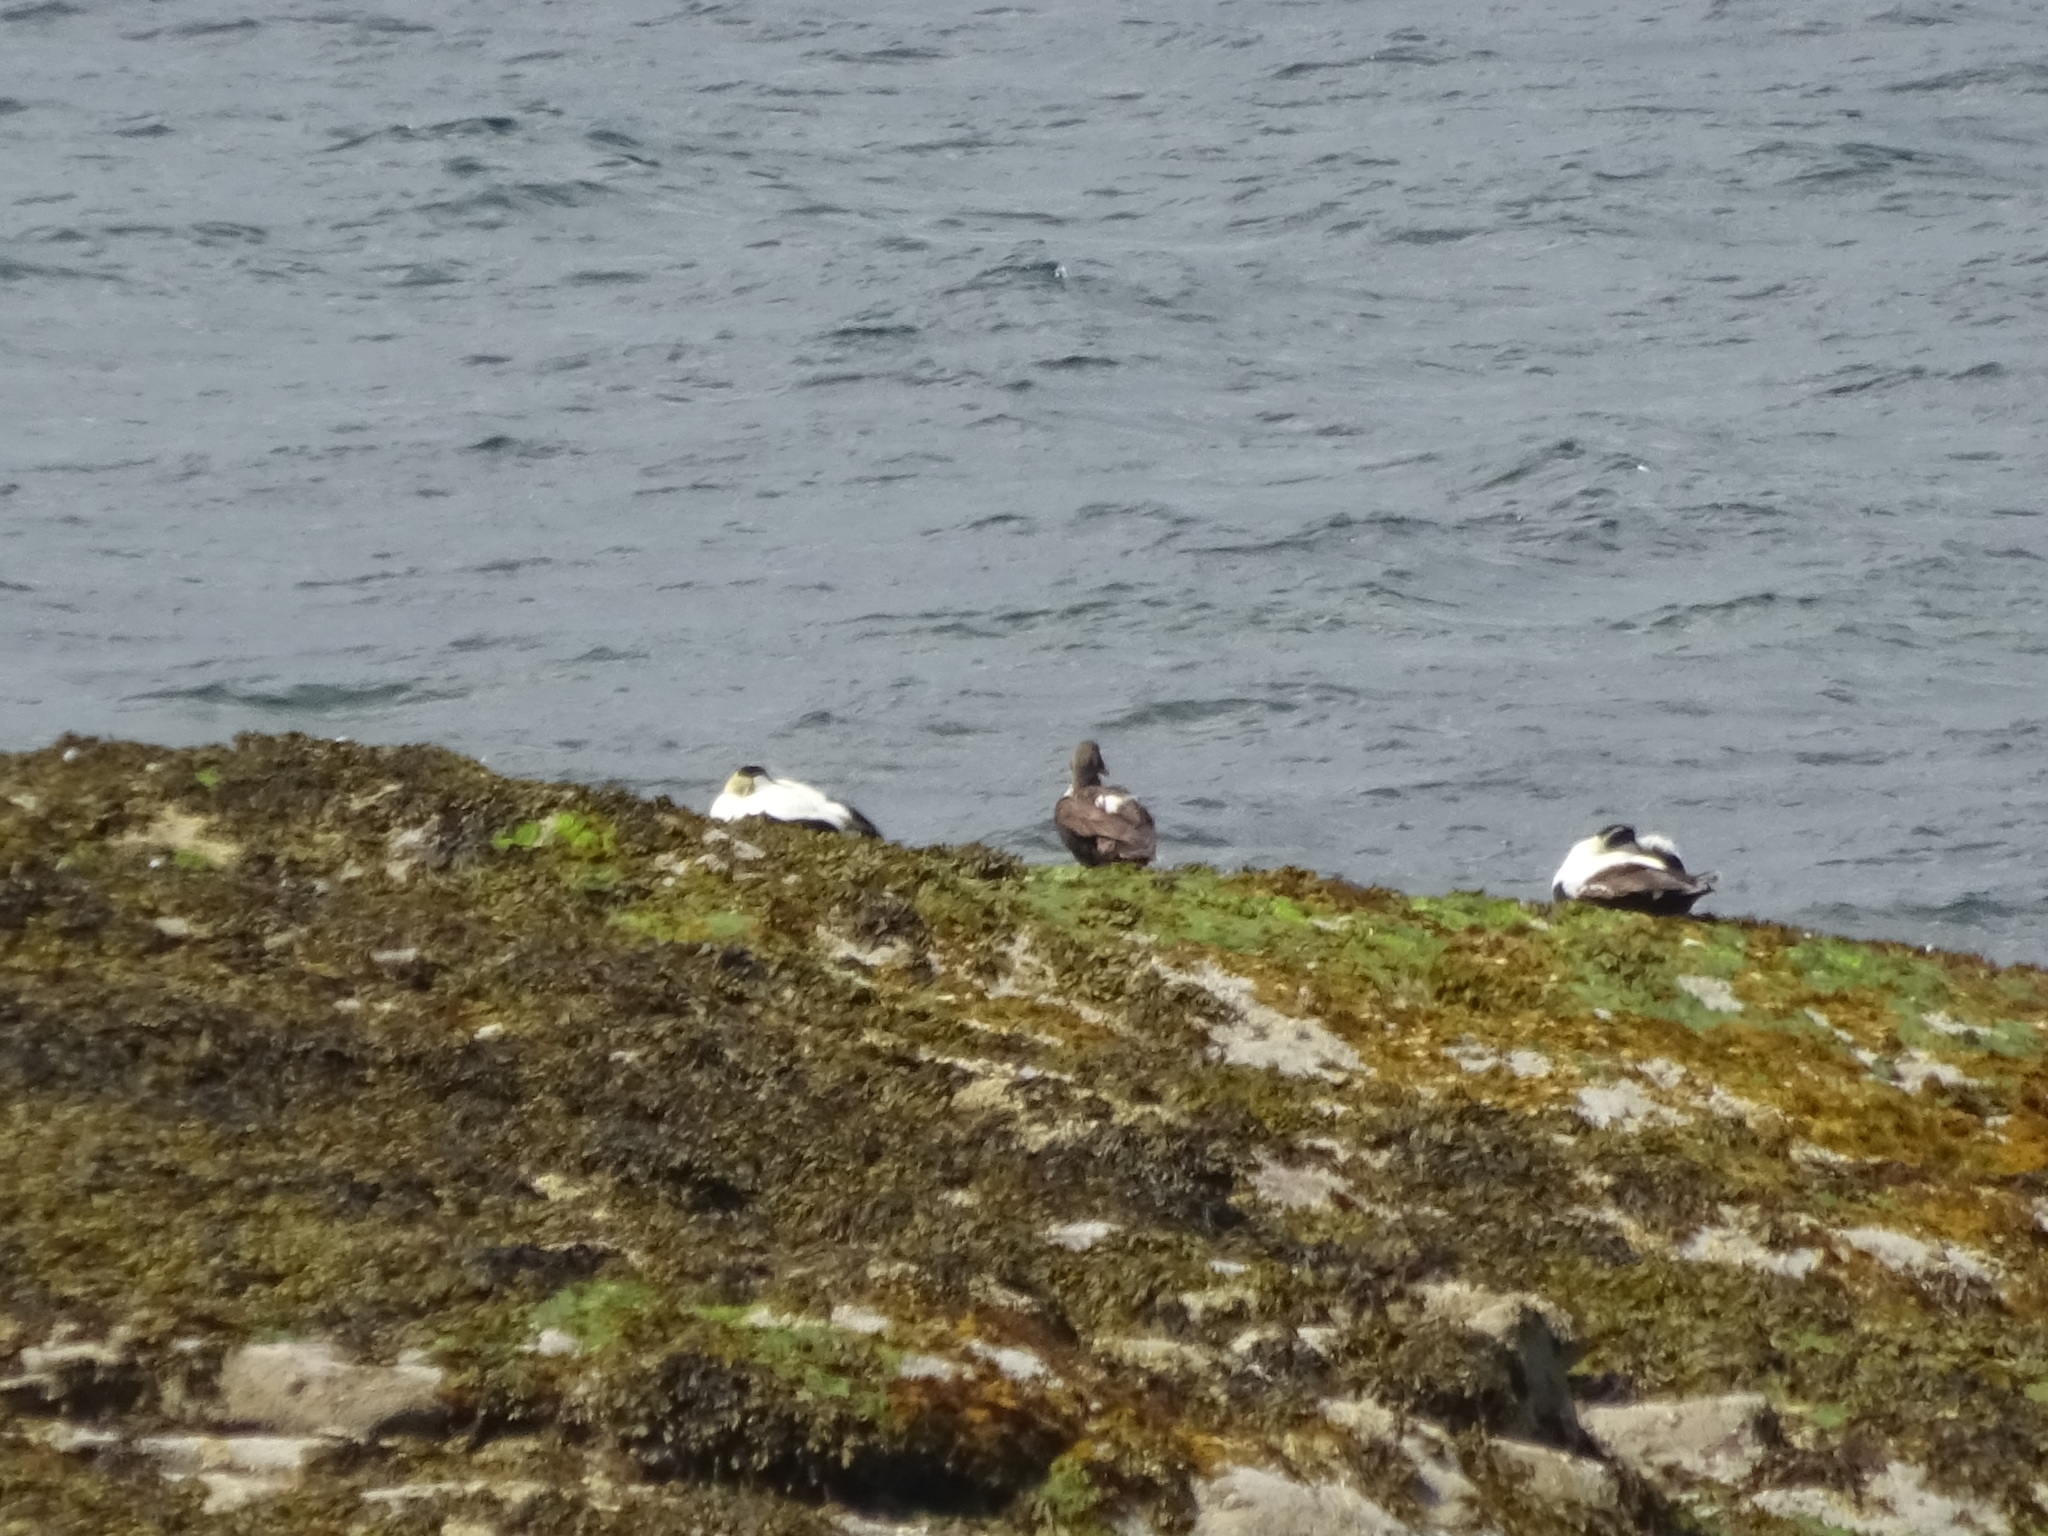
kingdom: Animalia
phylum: Chordata
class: Aves
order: Anseriformes
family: Anatidae
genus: Somateria
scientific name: Somateria mollissima
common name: Common eider
